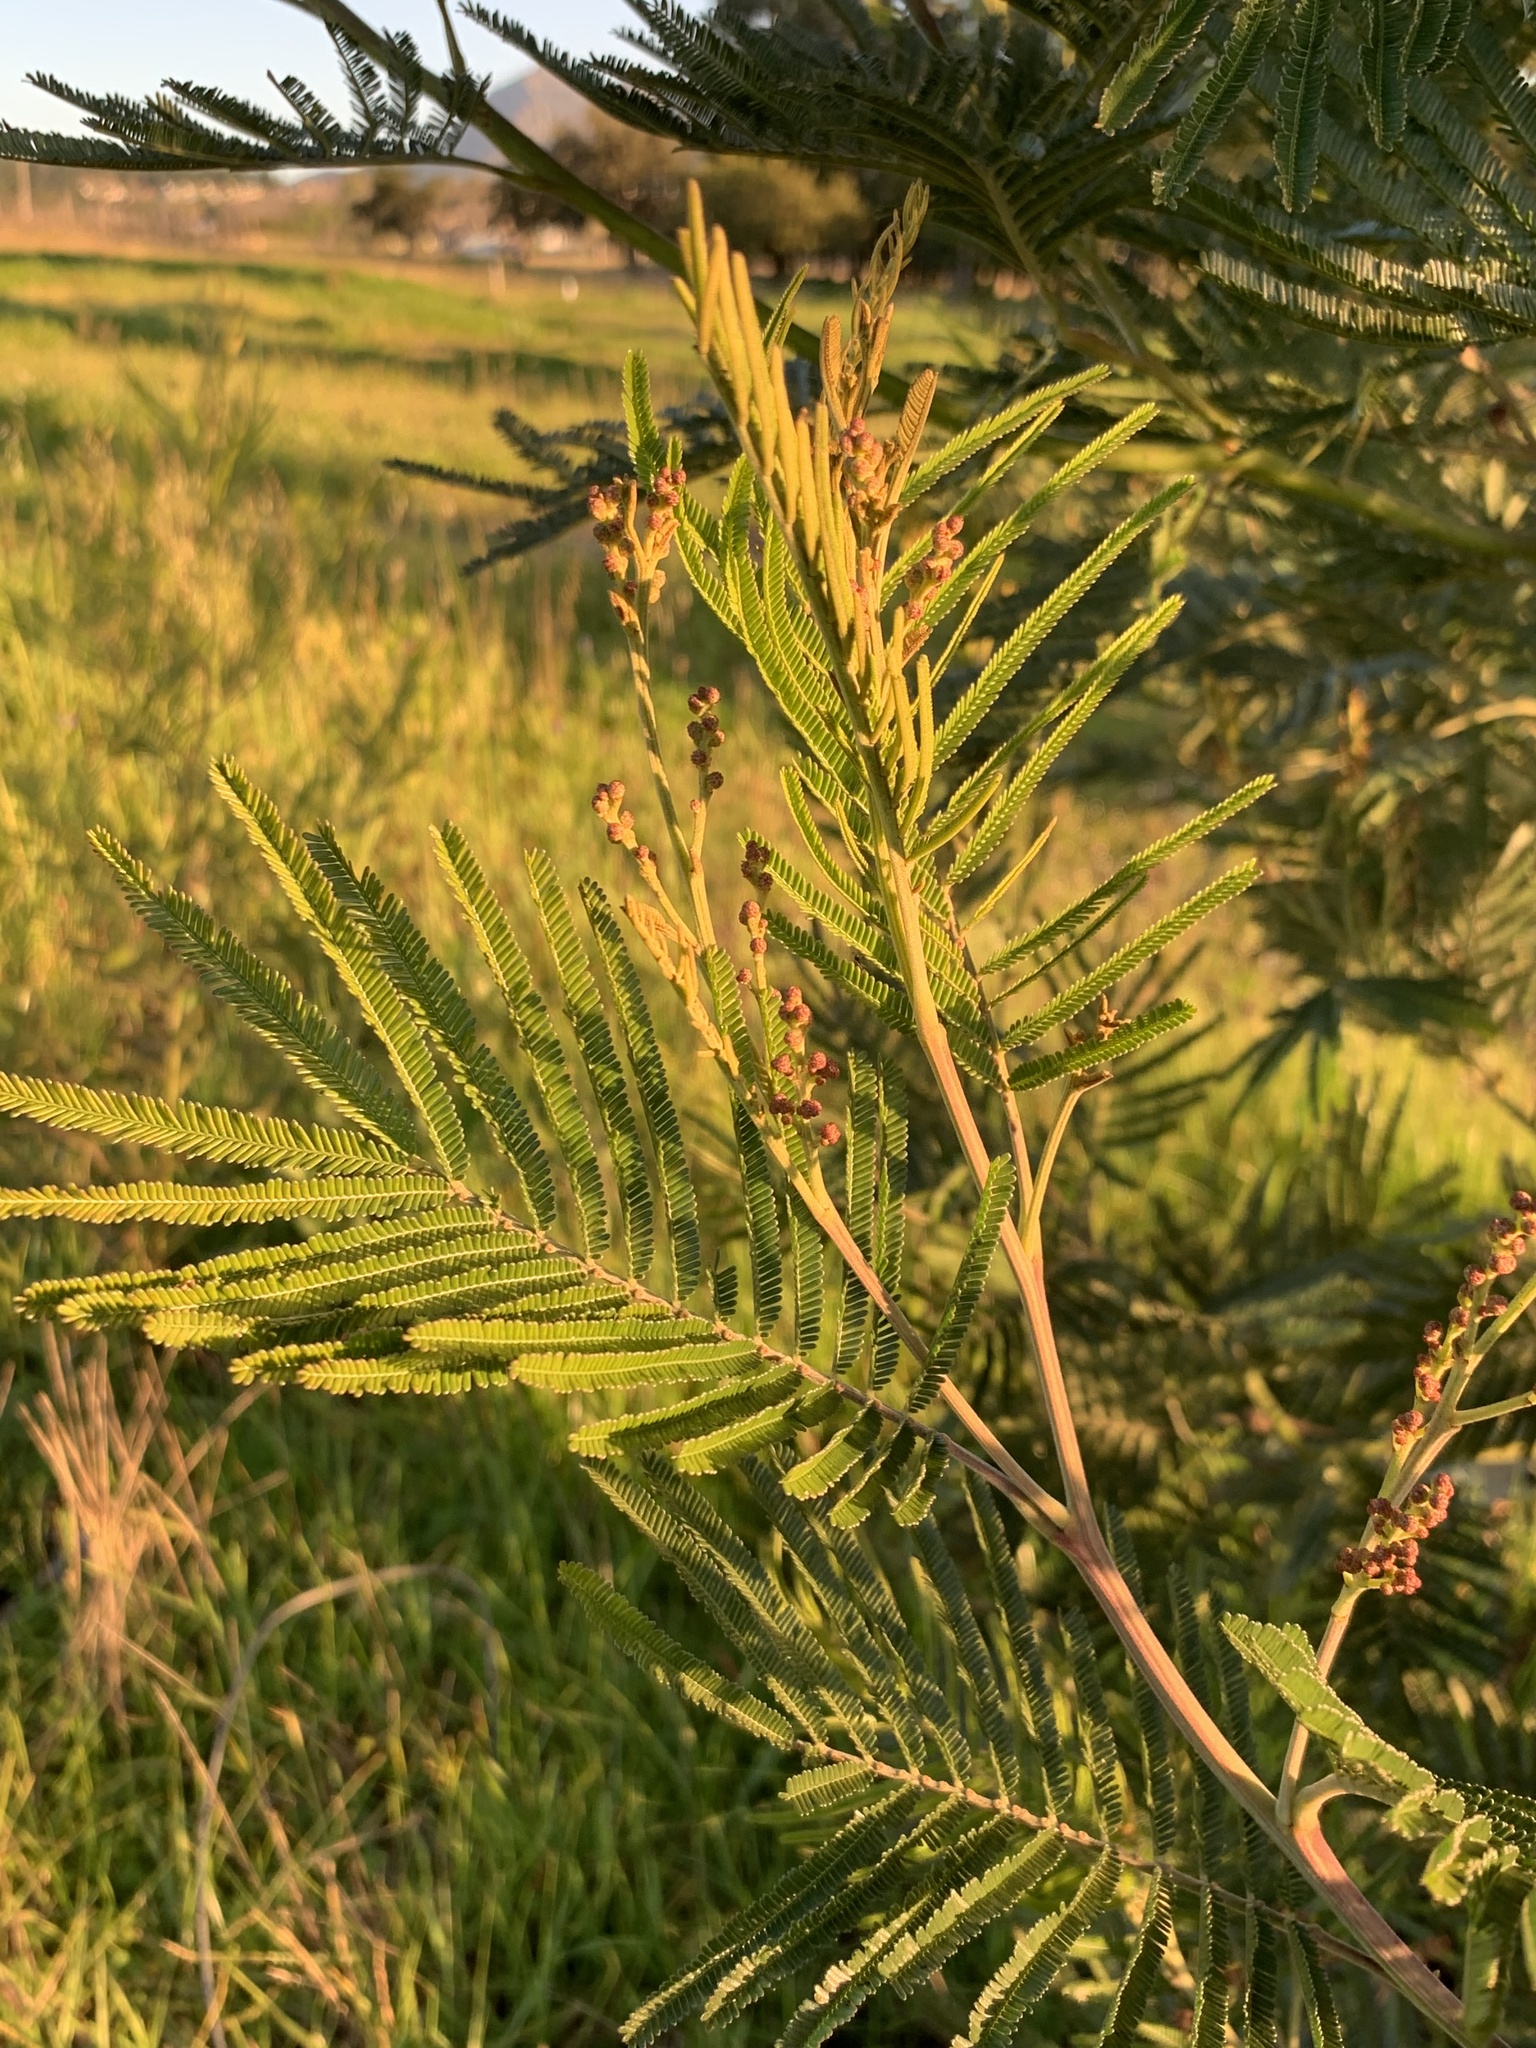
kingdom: Plantae
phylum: Tracheophyta
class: Magnoliopsida
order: Fabales
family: Fabaceae
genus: Acacia
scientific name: Acacia mearnsii
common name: Black wattle
